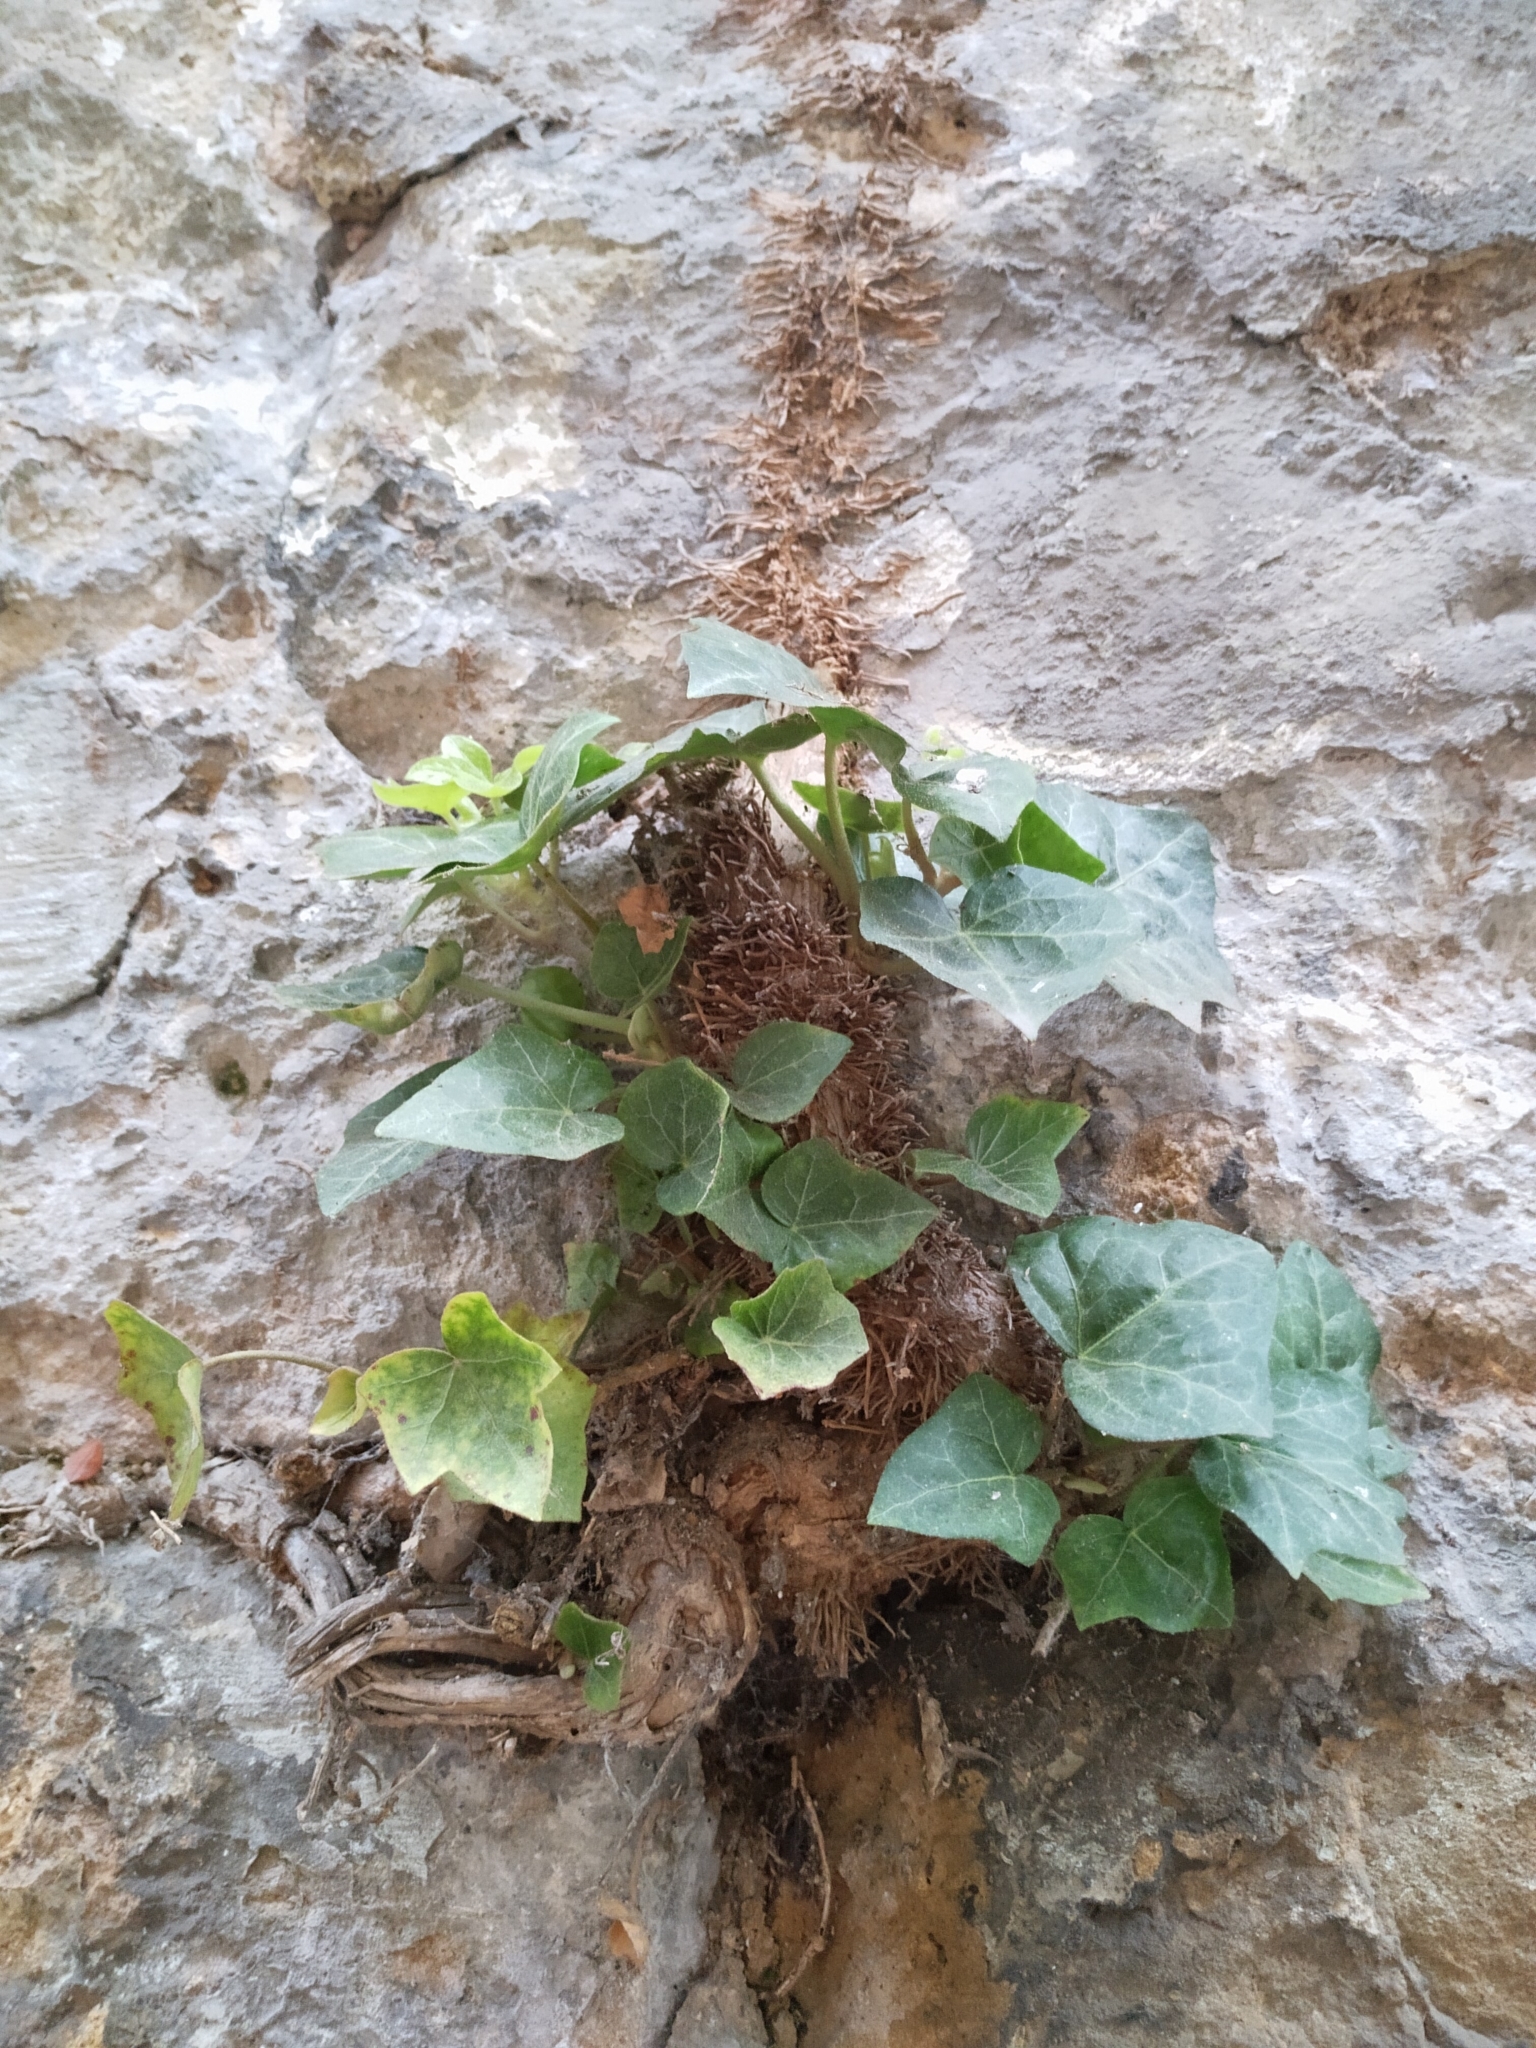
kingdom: Plantae
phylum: Tracheophyta
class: Magnoliopsida
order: Apiales
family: Araliaceae
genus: Hedera
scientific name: Hedera helix
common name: Ivy
